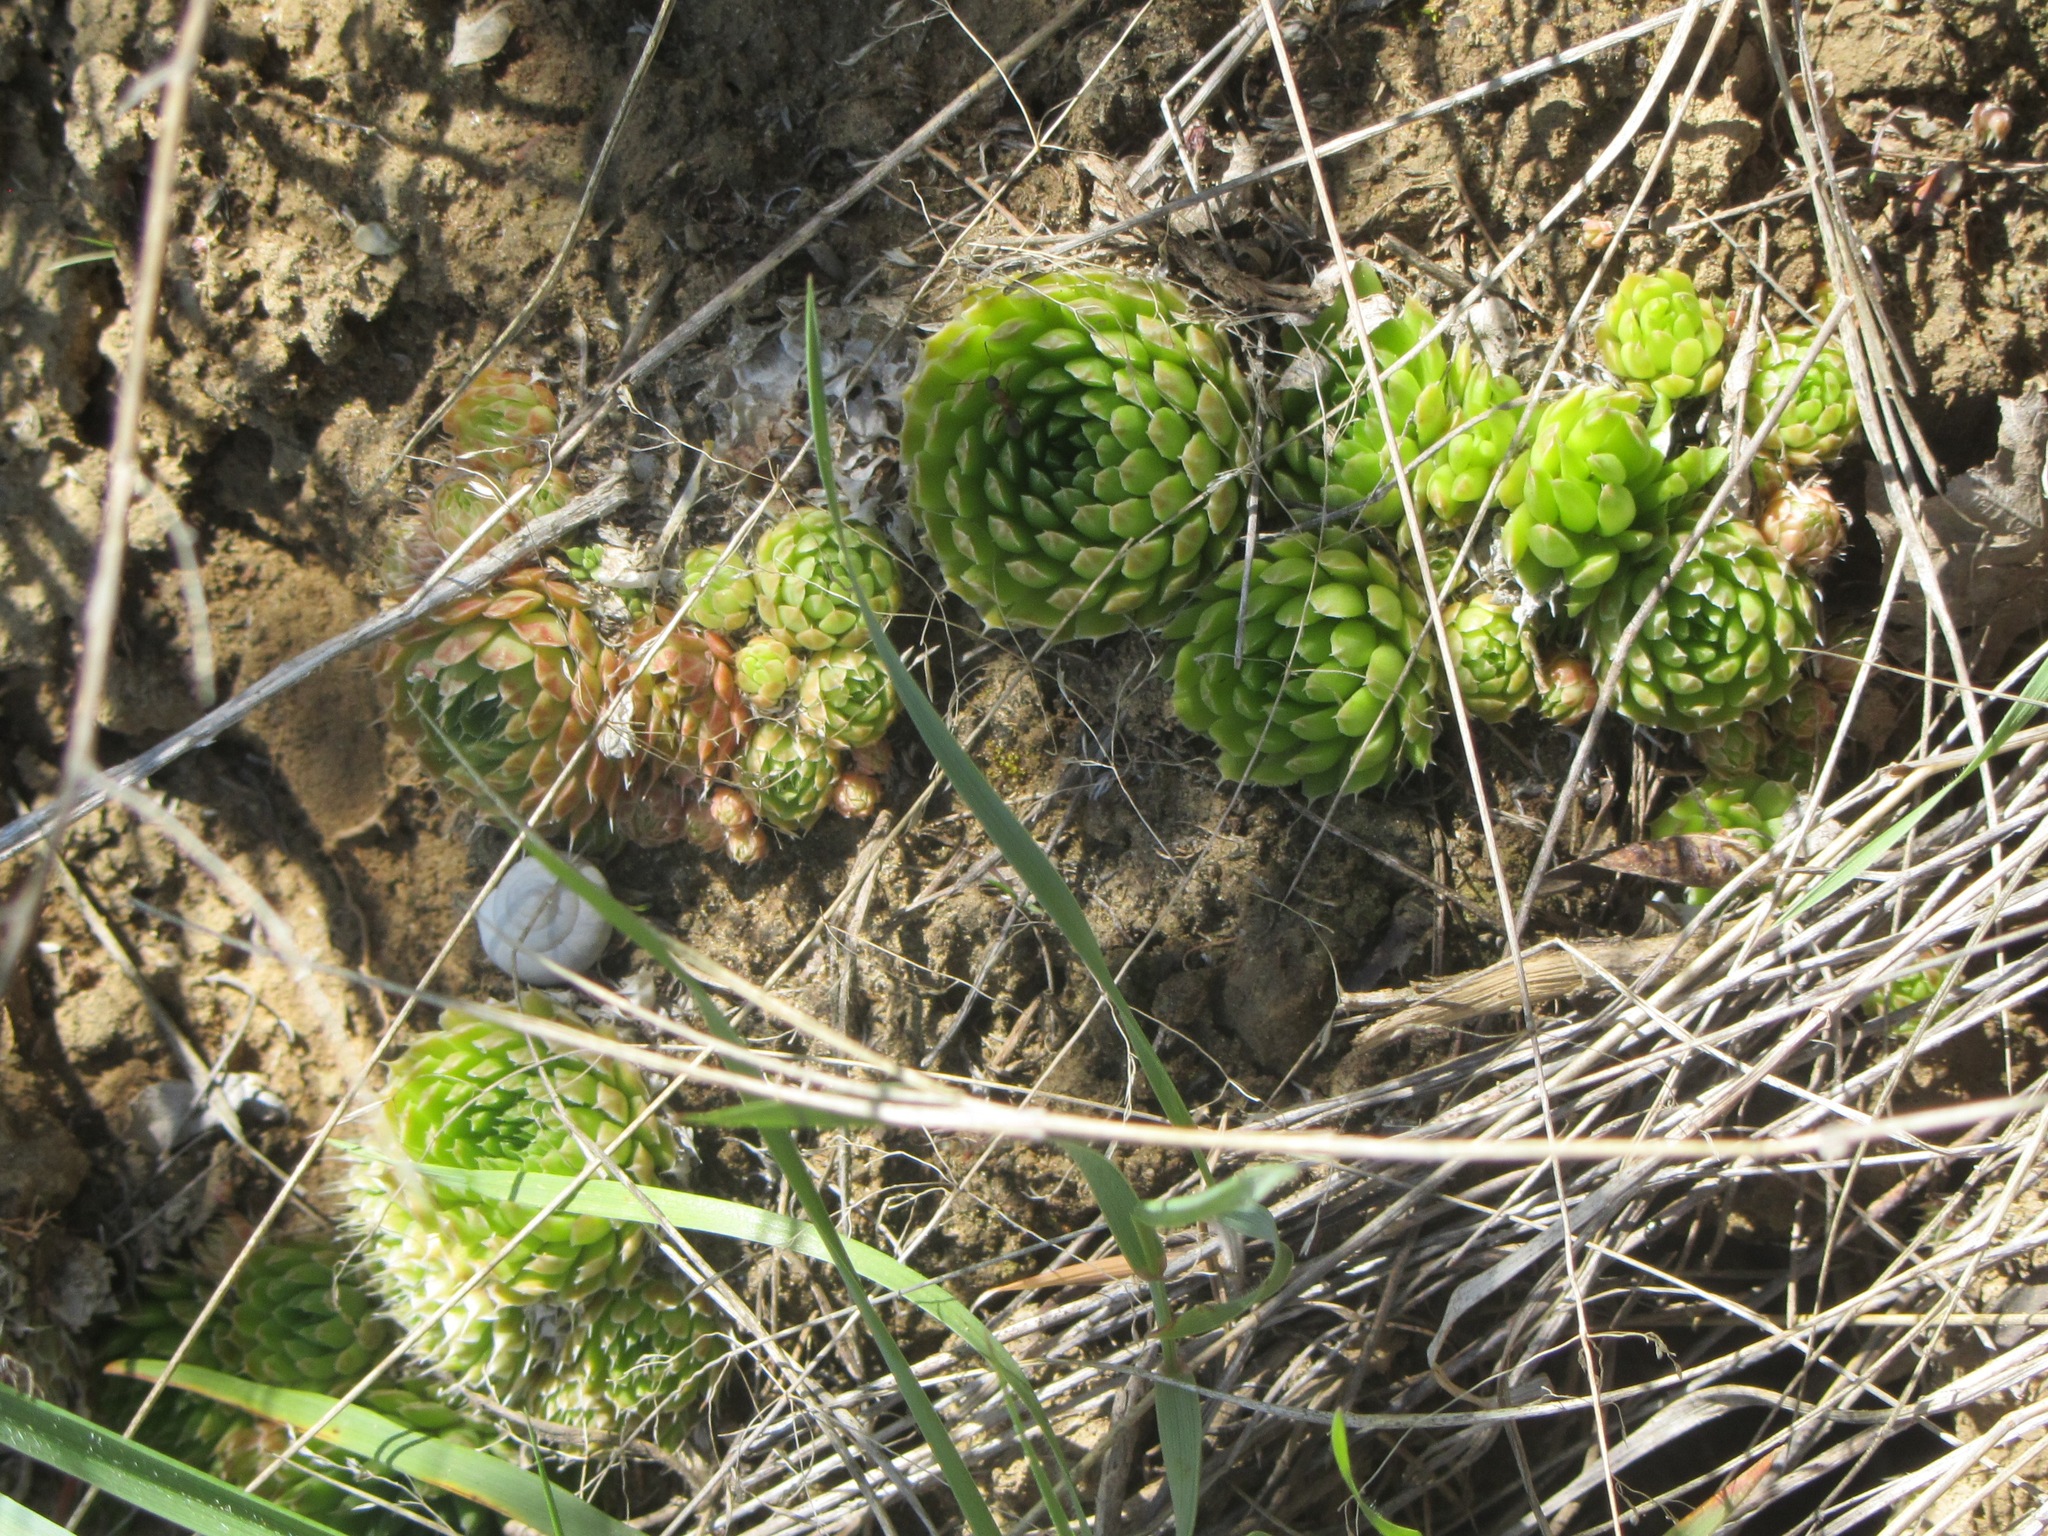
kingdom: Plantae
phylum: Tracheophyta
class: Magnoliopsida
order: Saxifragales
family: Crassulaceae
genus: Orostachys
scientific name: Orostachys spinosa
